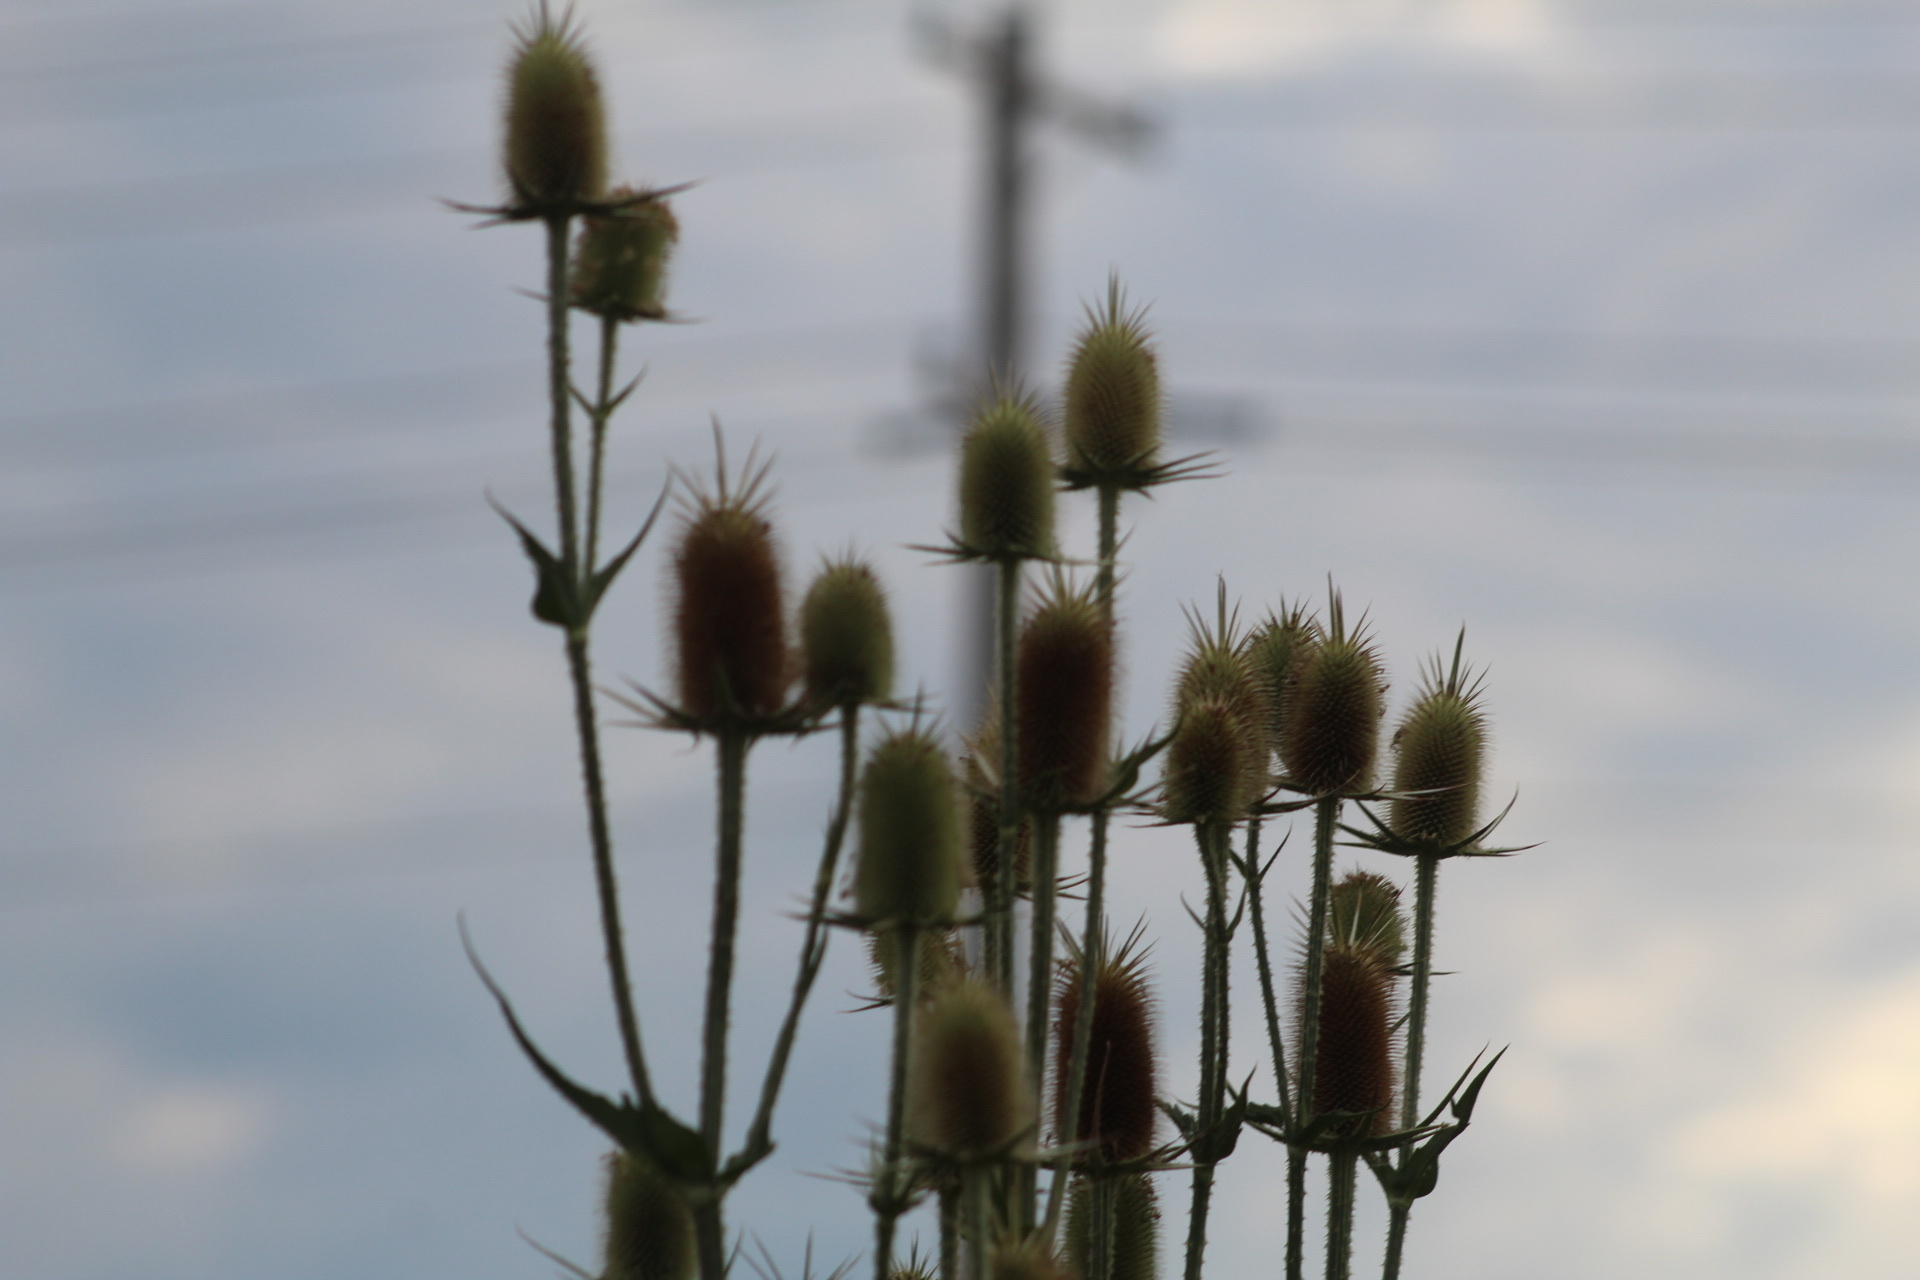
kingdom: Plantae
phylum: Tracheophyta
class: Magnoliopsida
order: Dipsacales
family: Caprifoliaceae
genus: Dipsacus
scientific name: Dipsacus laciniatus
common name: Cut-leaved teasel
